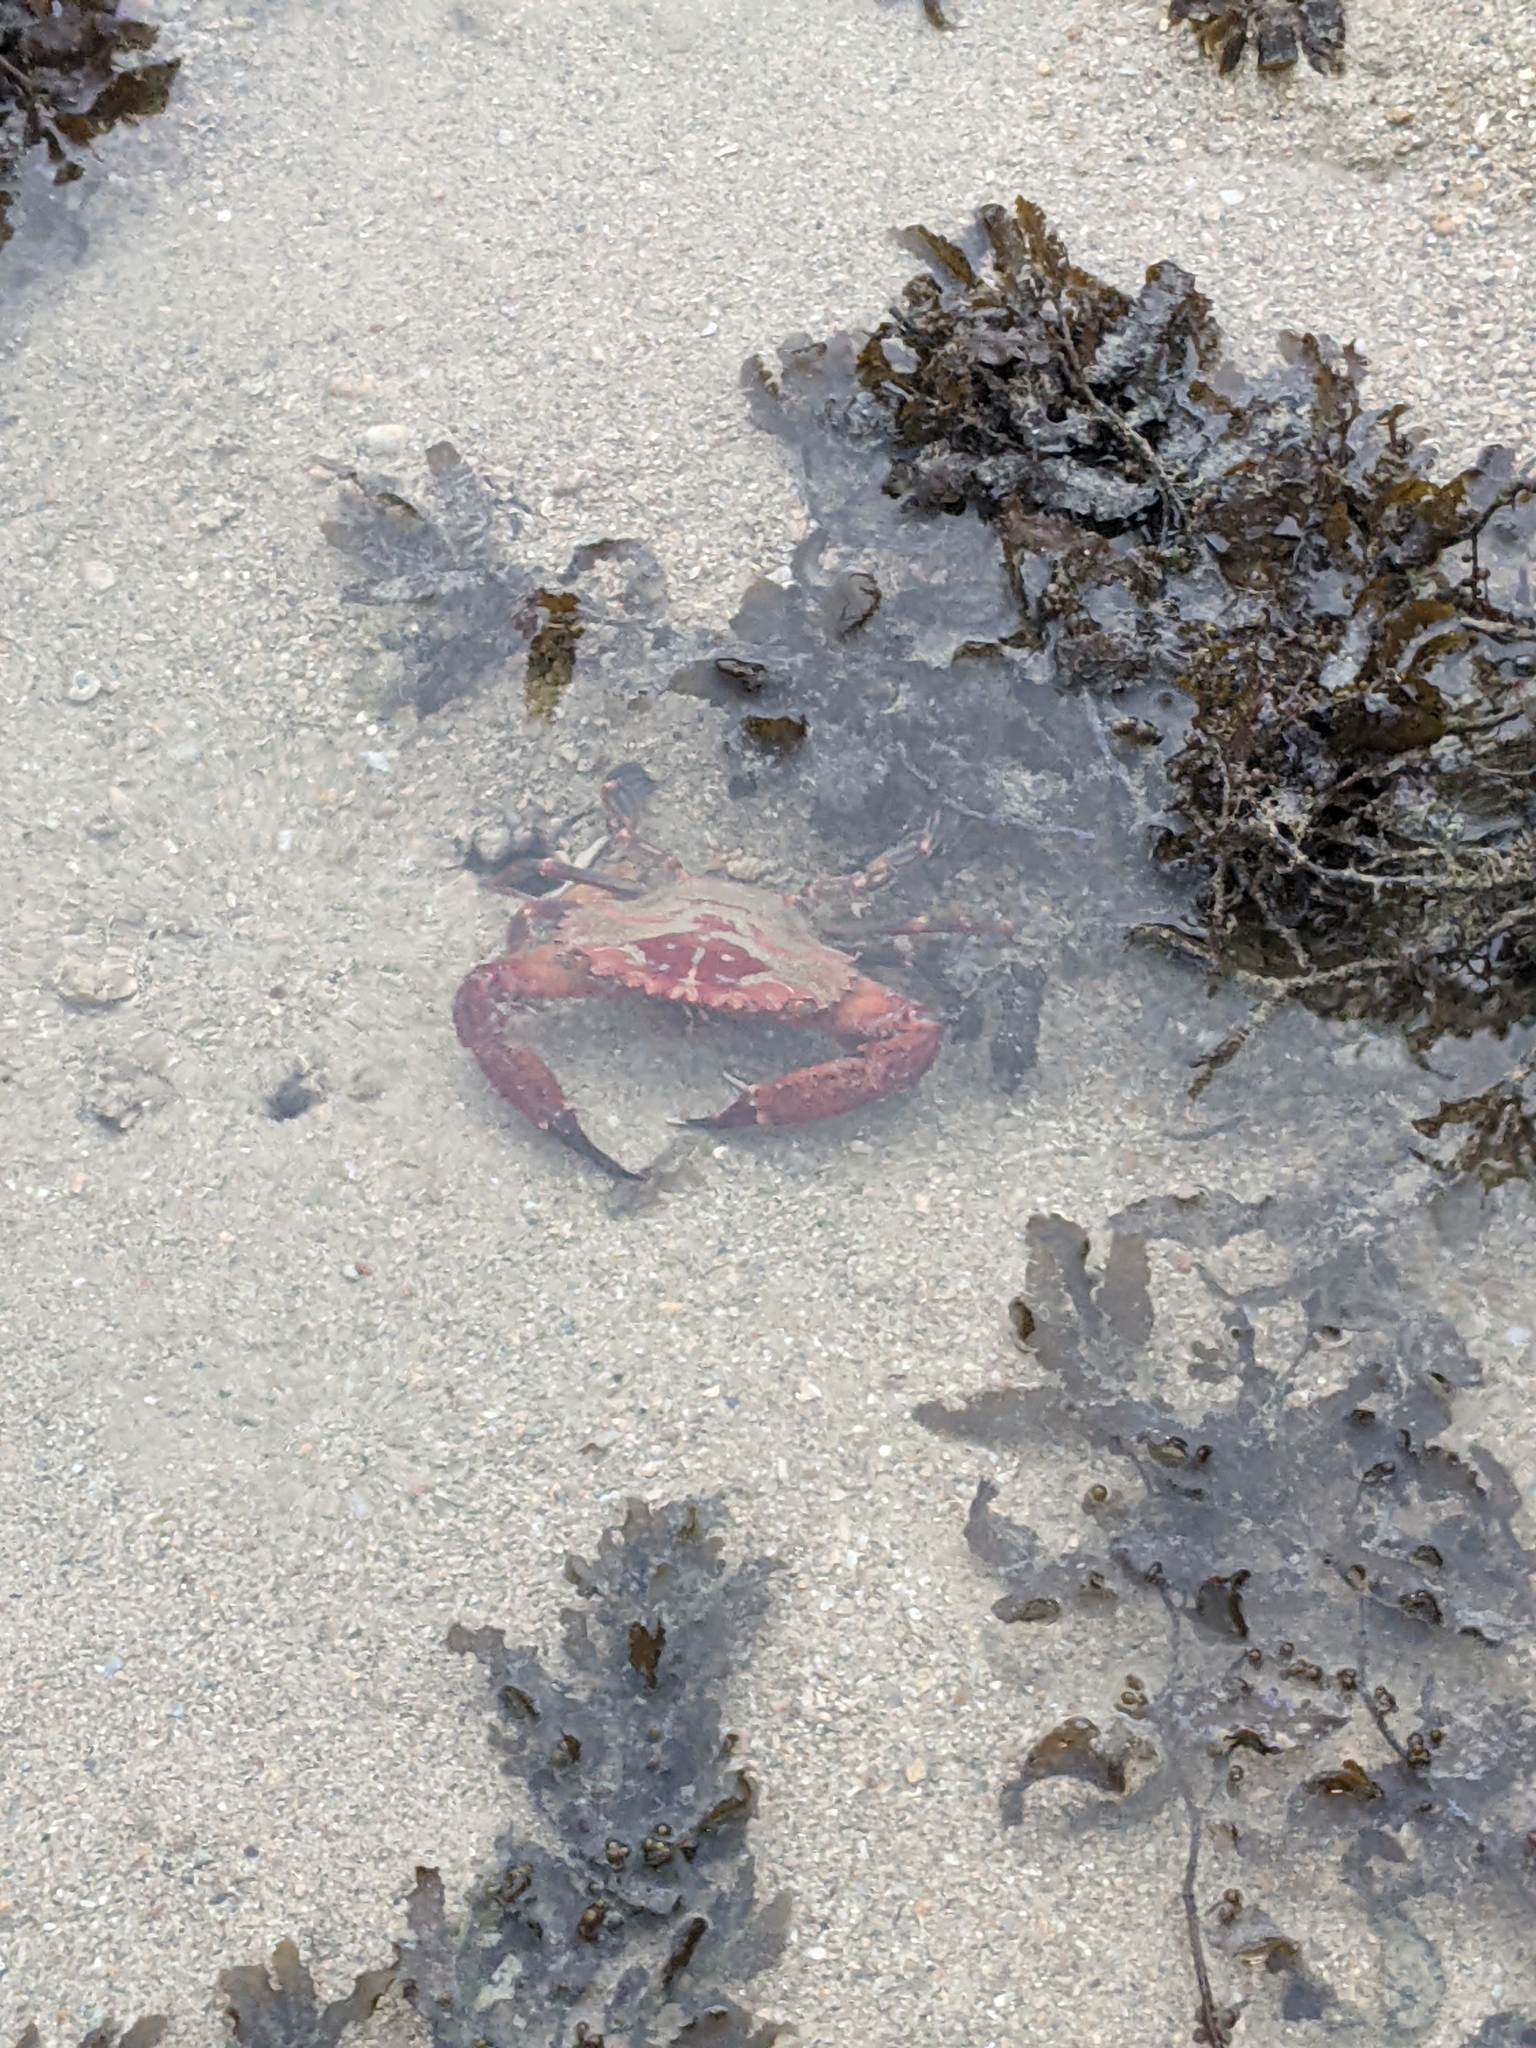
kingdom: Animalia
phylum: Arthropoda
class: Malacostraca
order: Decapoda
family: Portunidae
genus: Thalamita
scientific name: Thalamita spinimana
